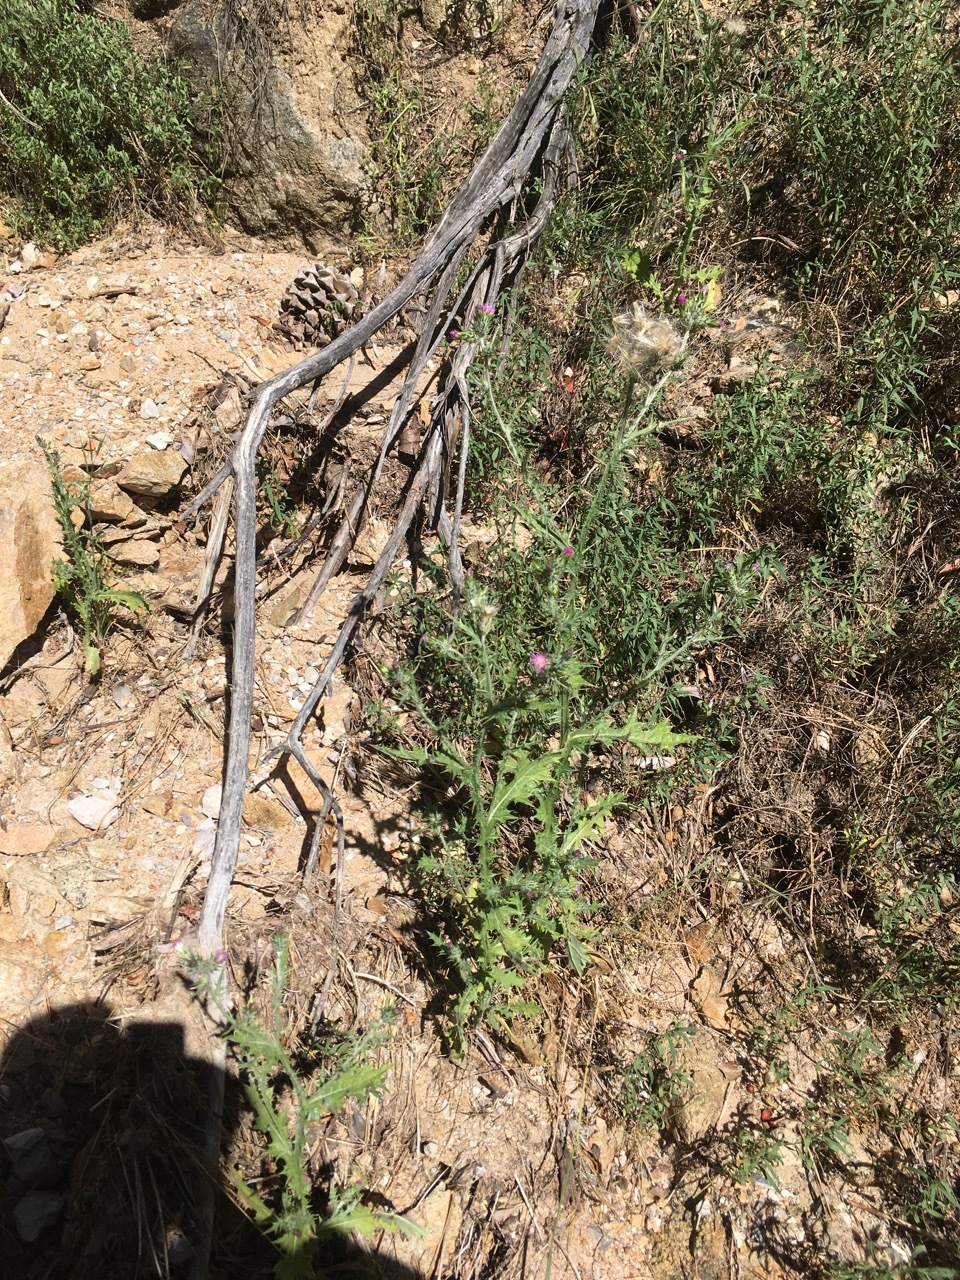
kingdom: Plantae
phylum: Tracheophyta
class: Magnoliopsida
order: Asterales
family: Asteraceae
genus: Carduus
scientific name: Carduus pycnocephalus
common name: Plymouth thistle
